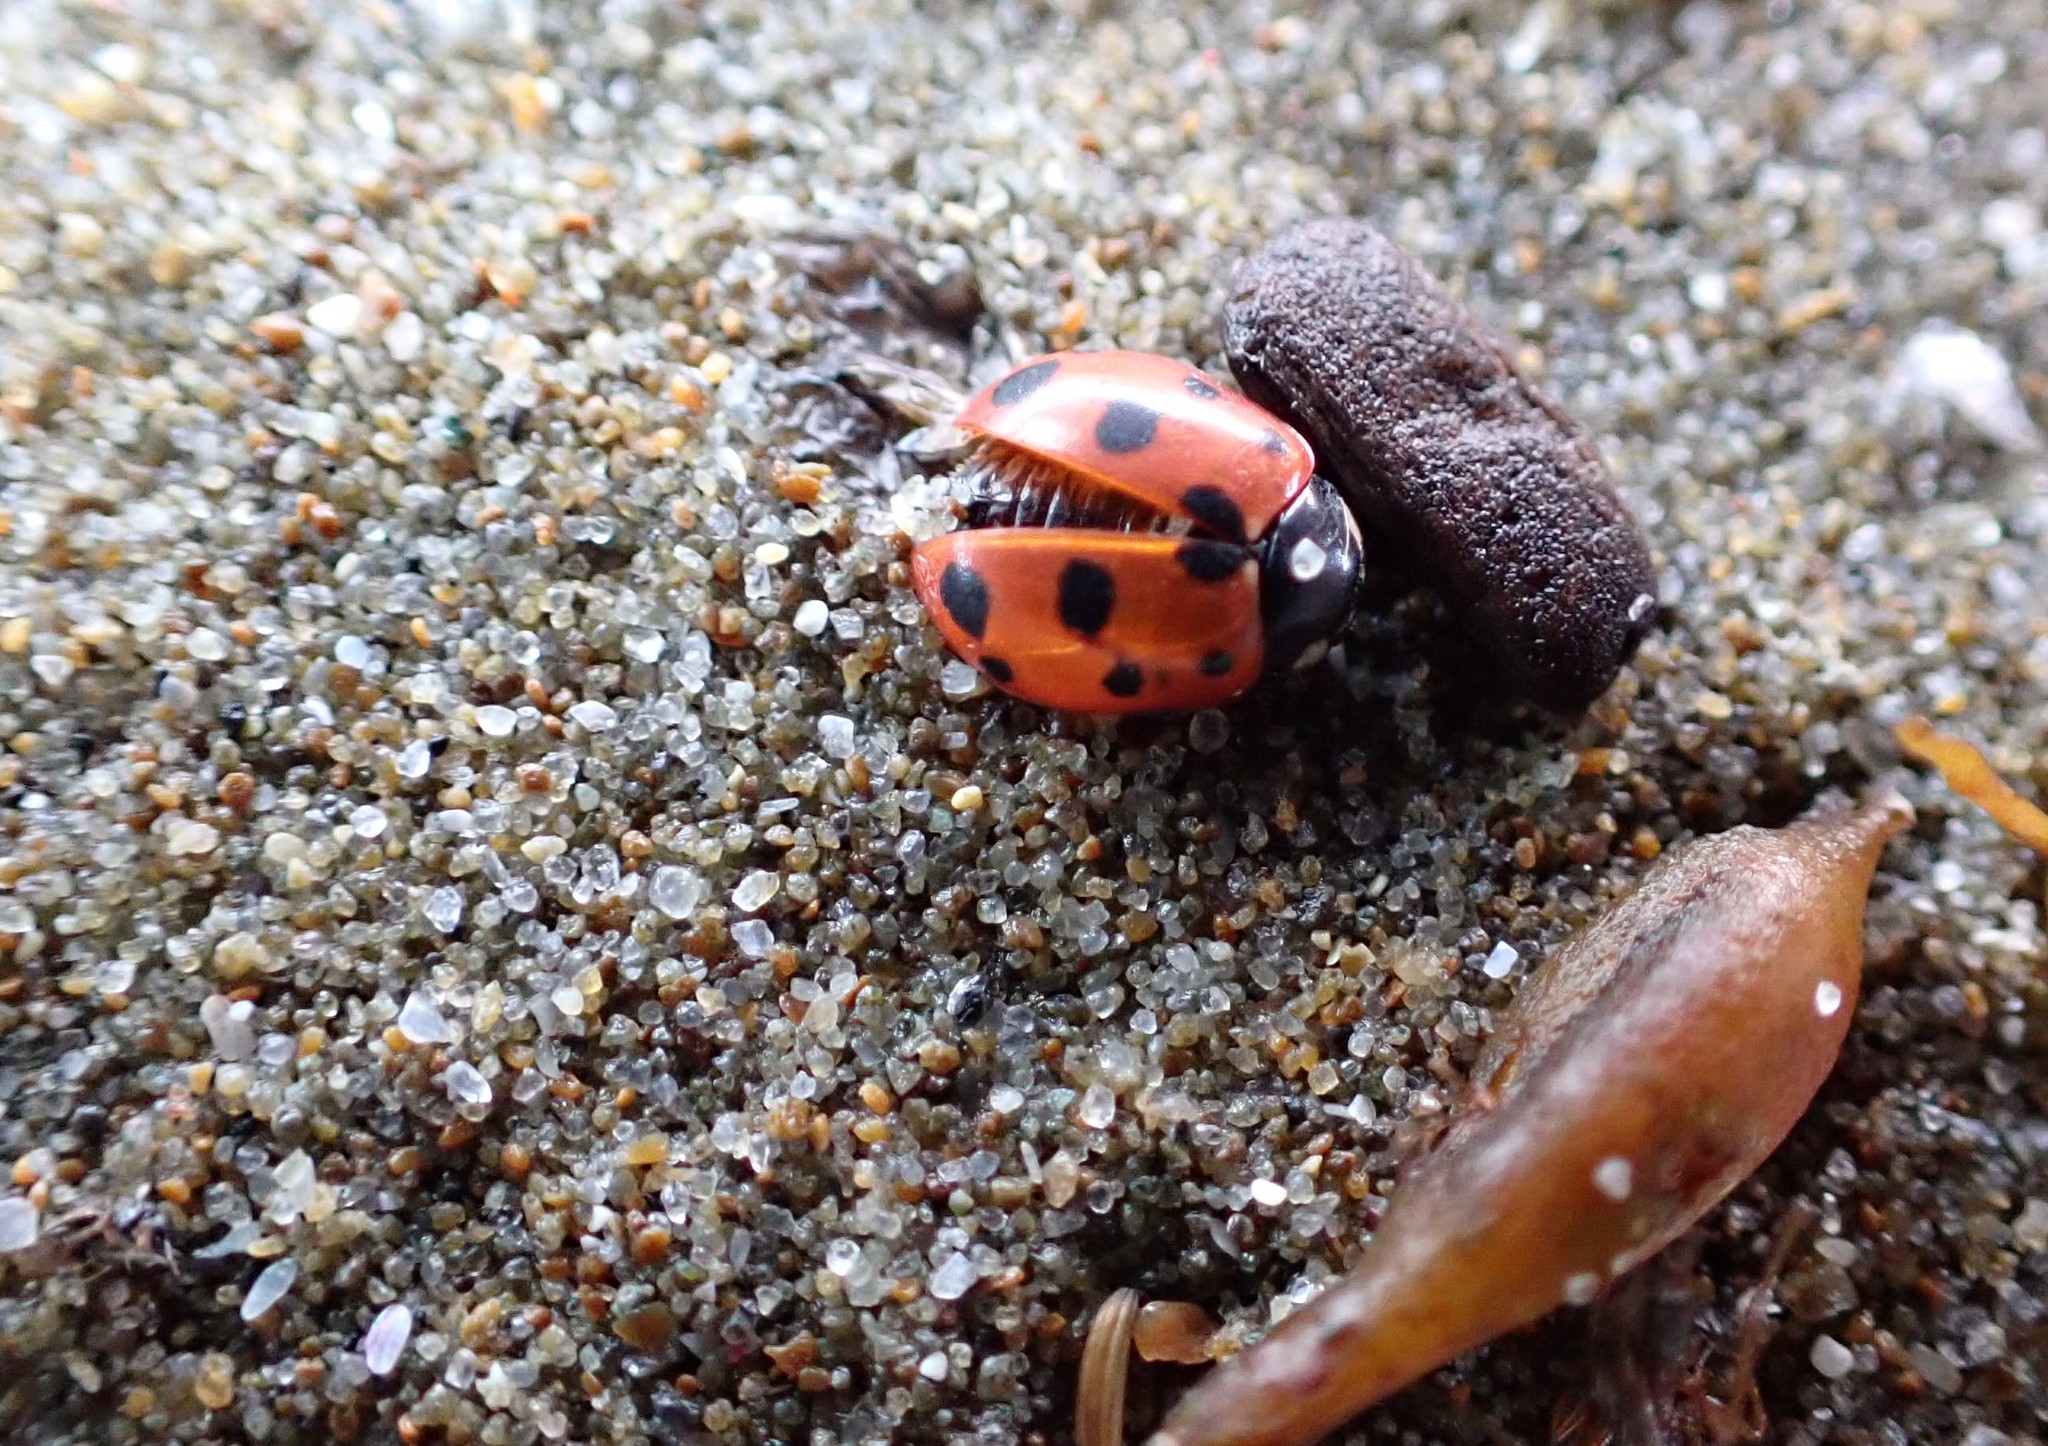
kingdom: Animalia
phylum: Arthropoda
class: Insecta
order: Coleoptera
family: Coccinellidae
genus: Coccinella
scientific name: Coccinella undecimpunctata
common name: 11-spot ladybird
